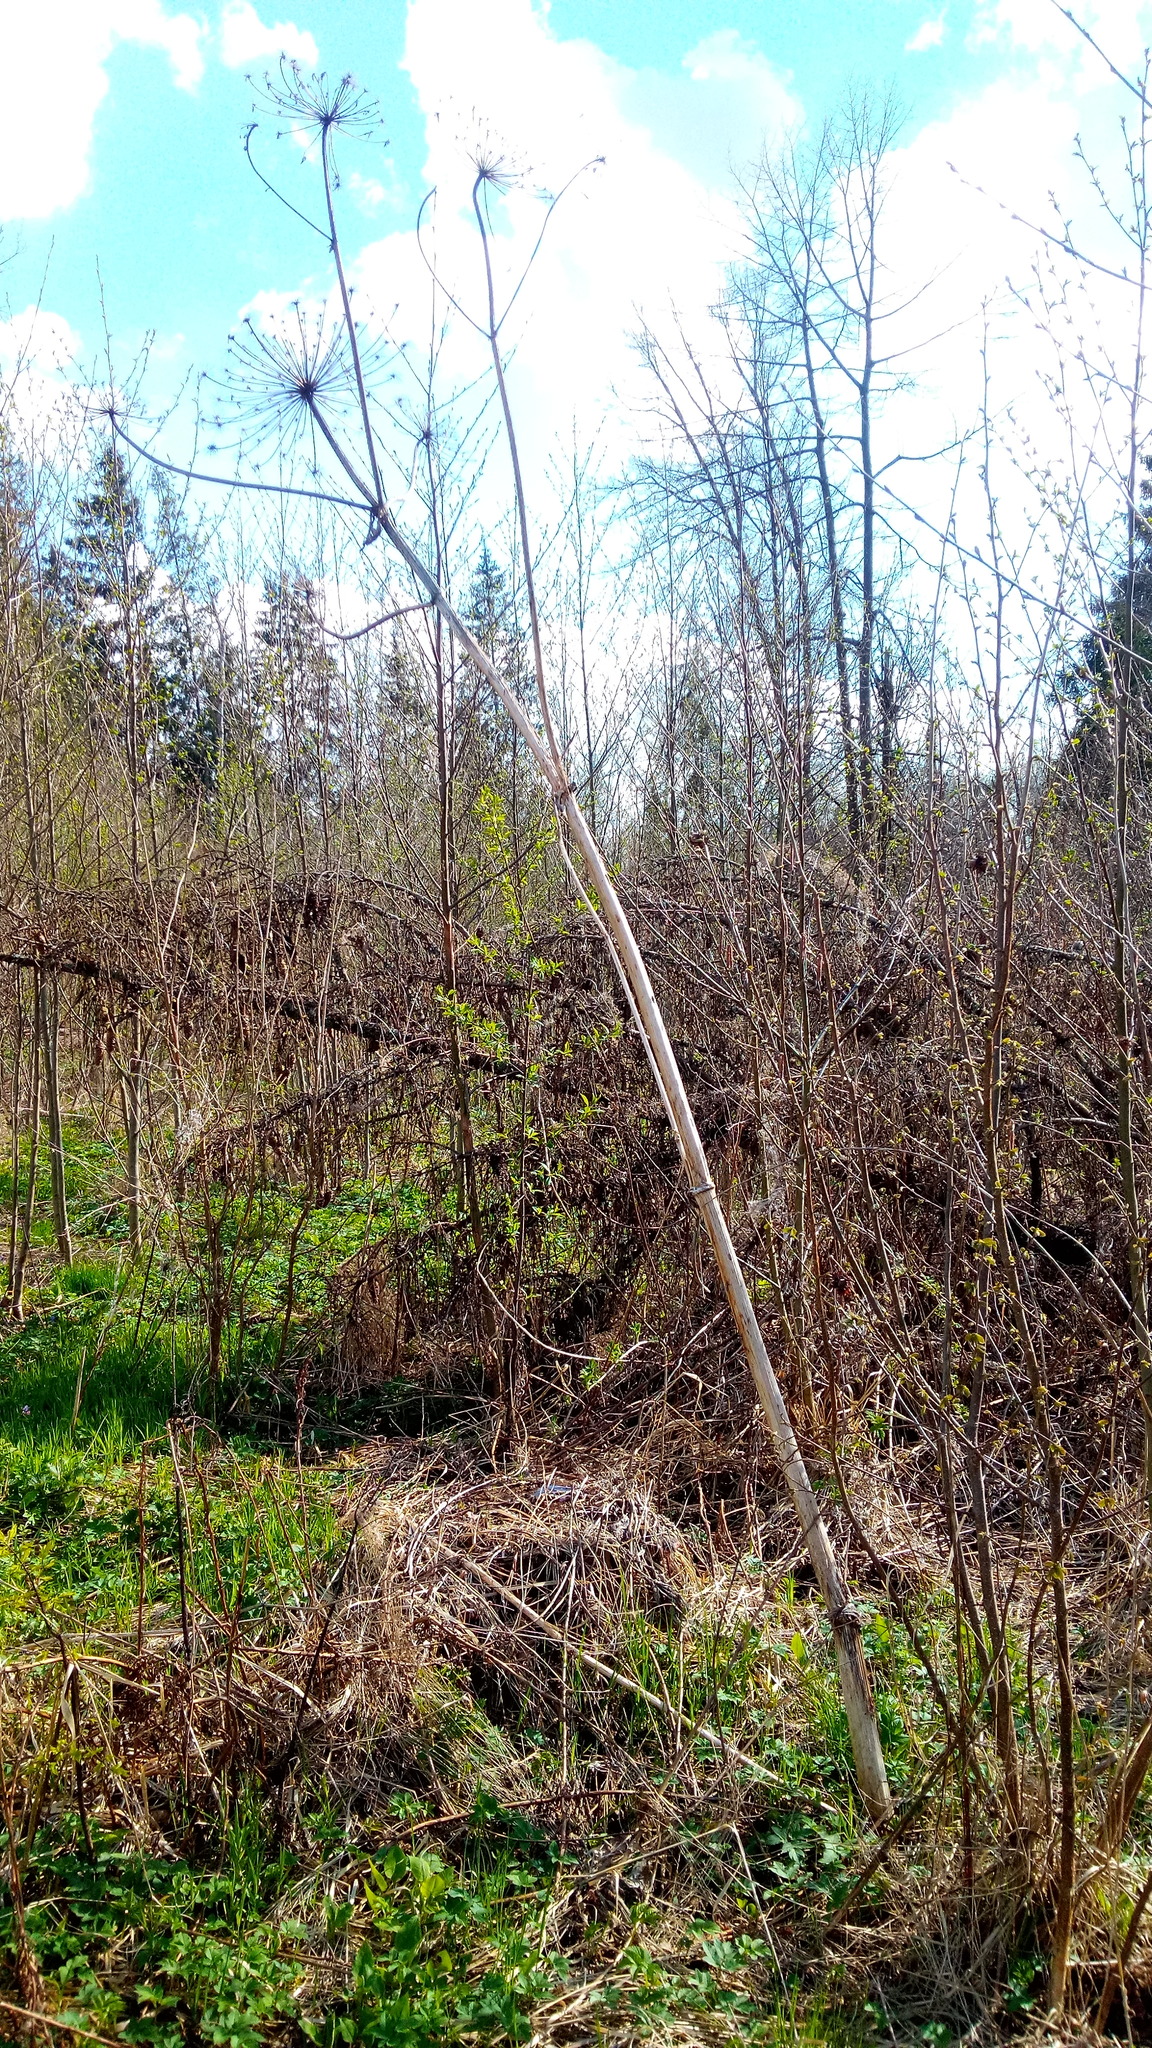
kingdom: Plantae
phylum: Tracheophyta
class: Magnoliopsida
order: Apiales
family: Apiaceae
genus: Heracleum
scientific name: Heracleum sosnowskyi
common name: Sosnowsky's hogweed
